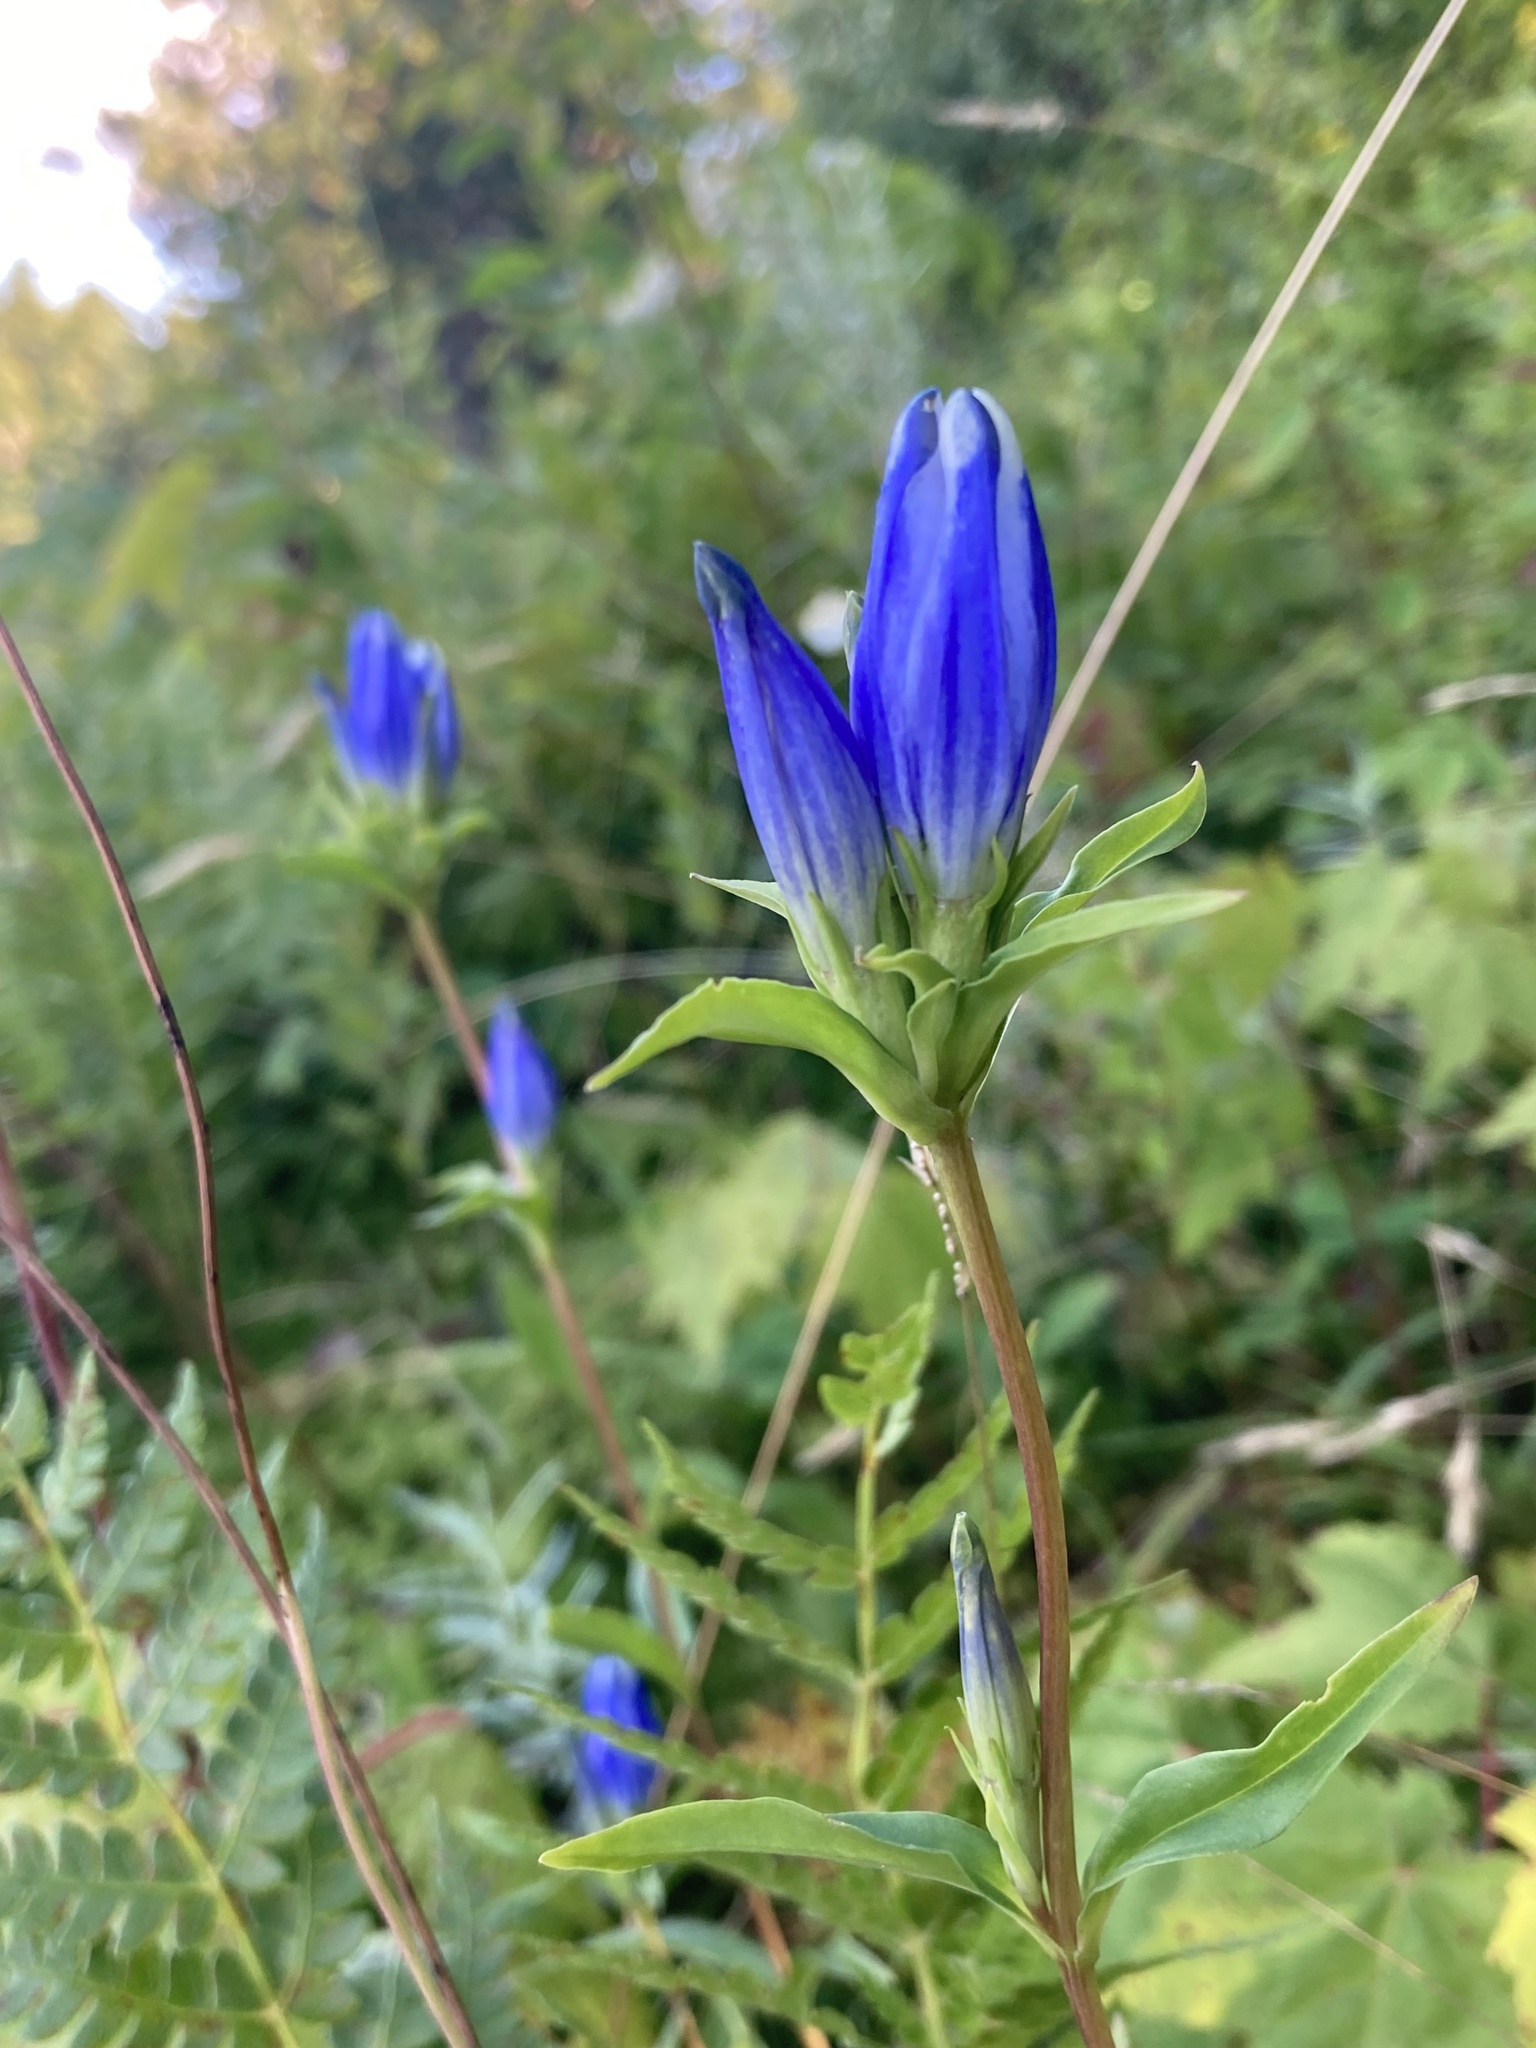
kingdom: Plantae
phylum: Tracheophyta
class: Magnoliopsida
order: Gentianales
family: Gentianaceae
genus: Gentiana
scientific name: Gentiana linearis
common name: Bastard gentian
